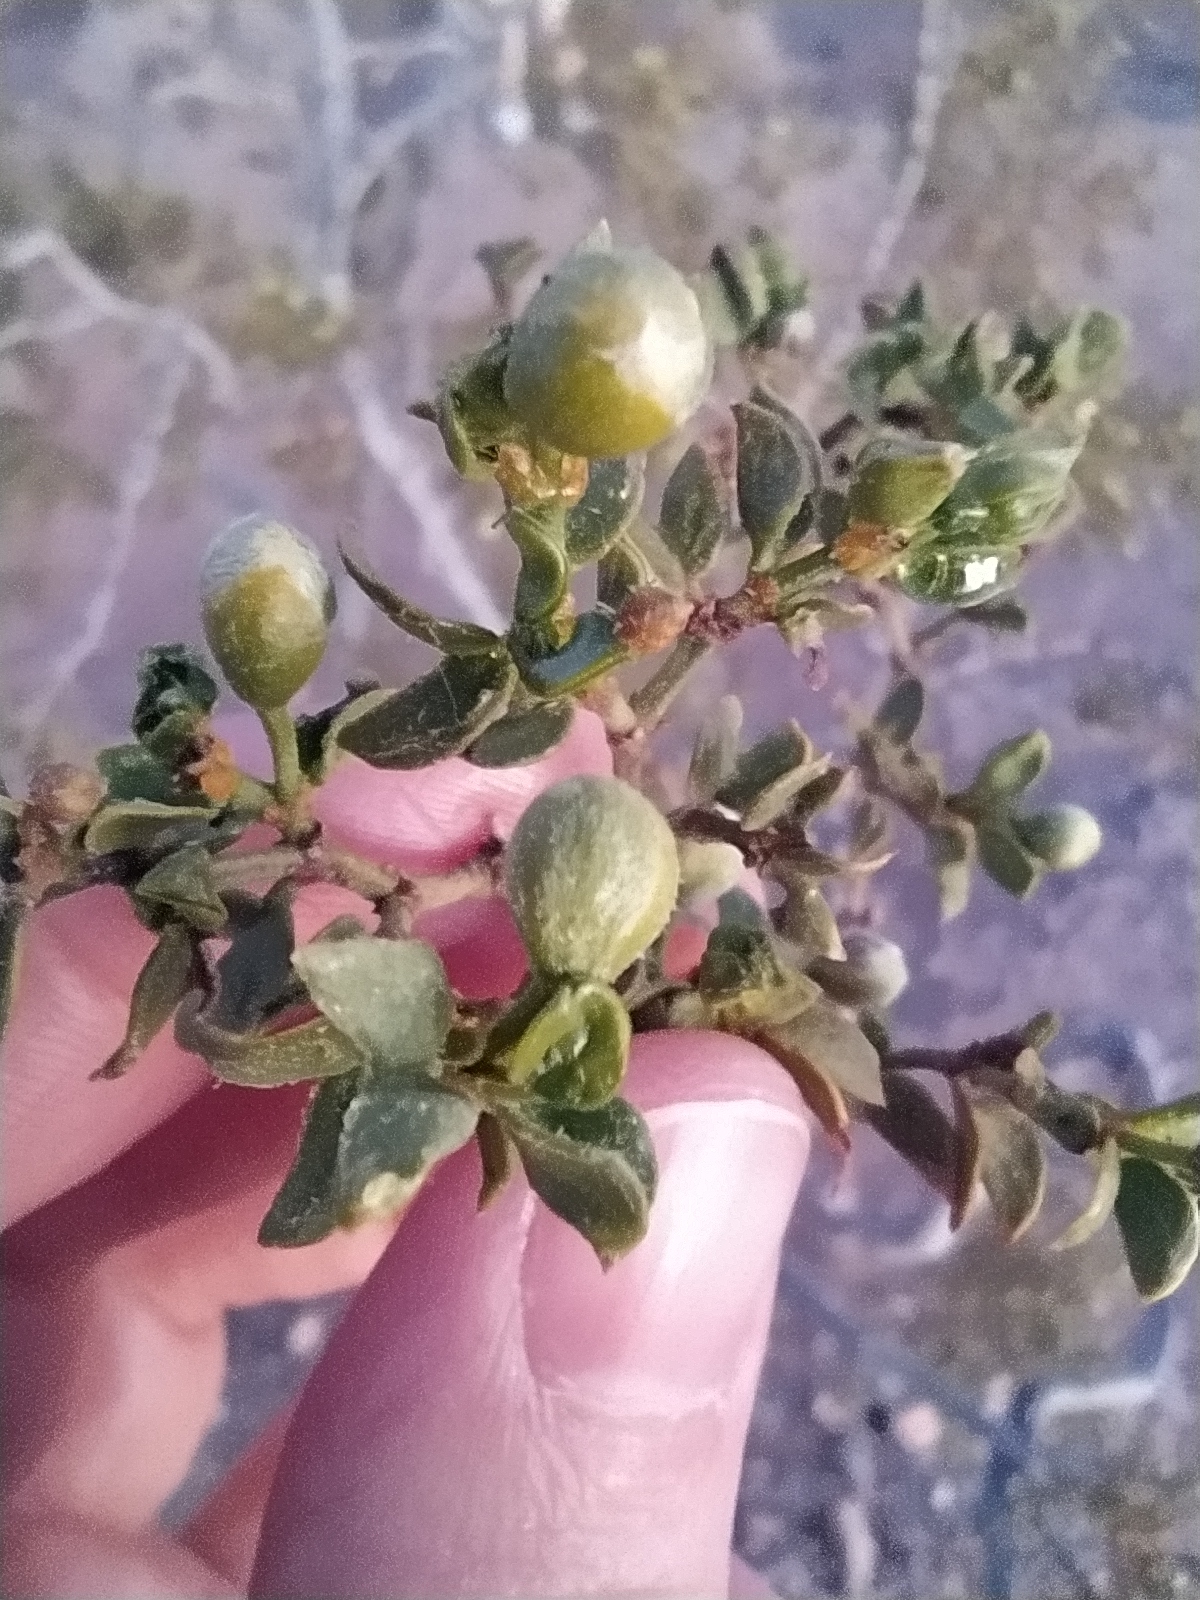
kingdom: Plantae
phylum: Tracheophyta
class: Magnoliopsida
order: Zygophyllales
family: Zygophyllaceae
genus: Larrea
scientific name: Larrea tridentata
